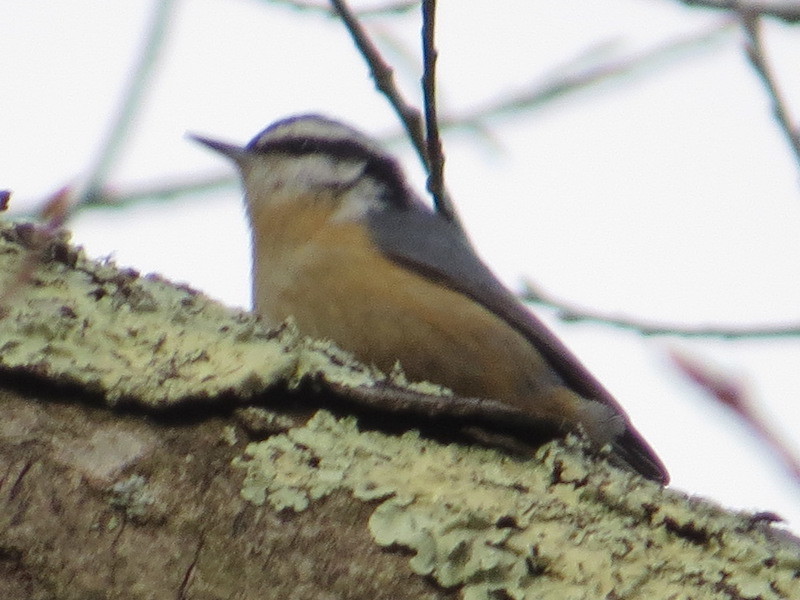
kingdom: Animalia
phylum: Chordata
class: Aves
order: Passeriformes
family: Sittidae
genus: Sitta
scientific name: Sitta canadensis
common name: Red-breasted nuthatch
